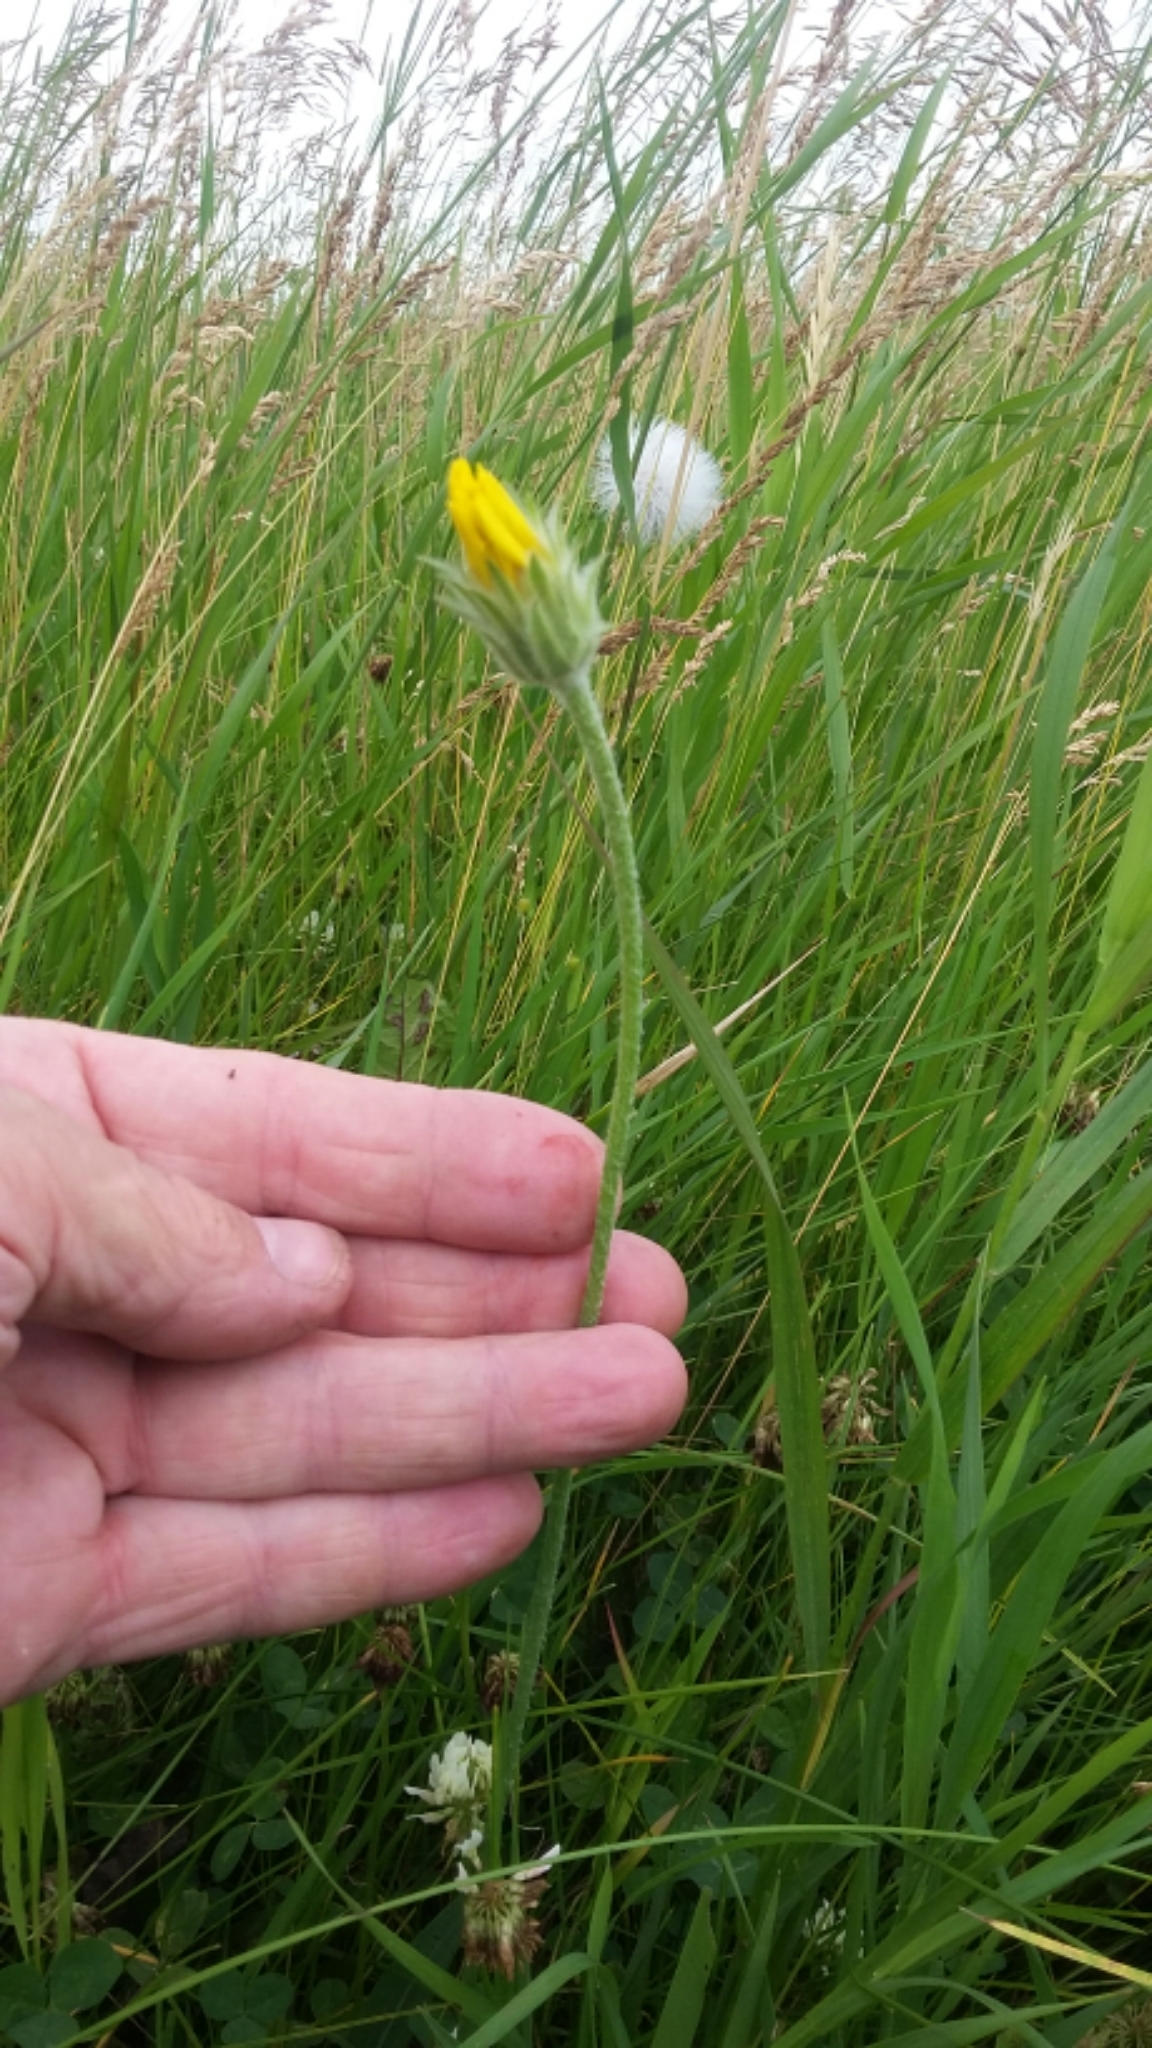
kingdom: Plantae
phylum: Tracheophyta
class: Magnoliopsida
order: Asterales
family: Asteraceae
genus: Agoseris
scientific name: Agoseris glauca
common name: Prairie agoseris
